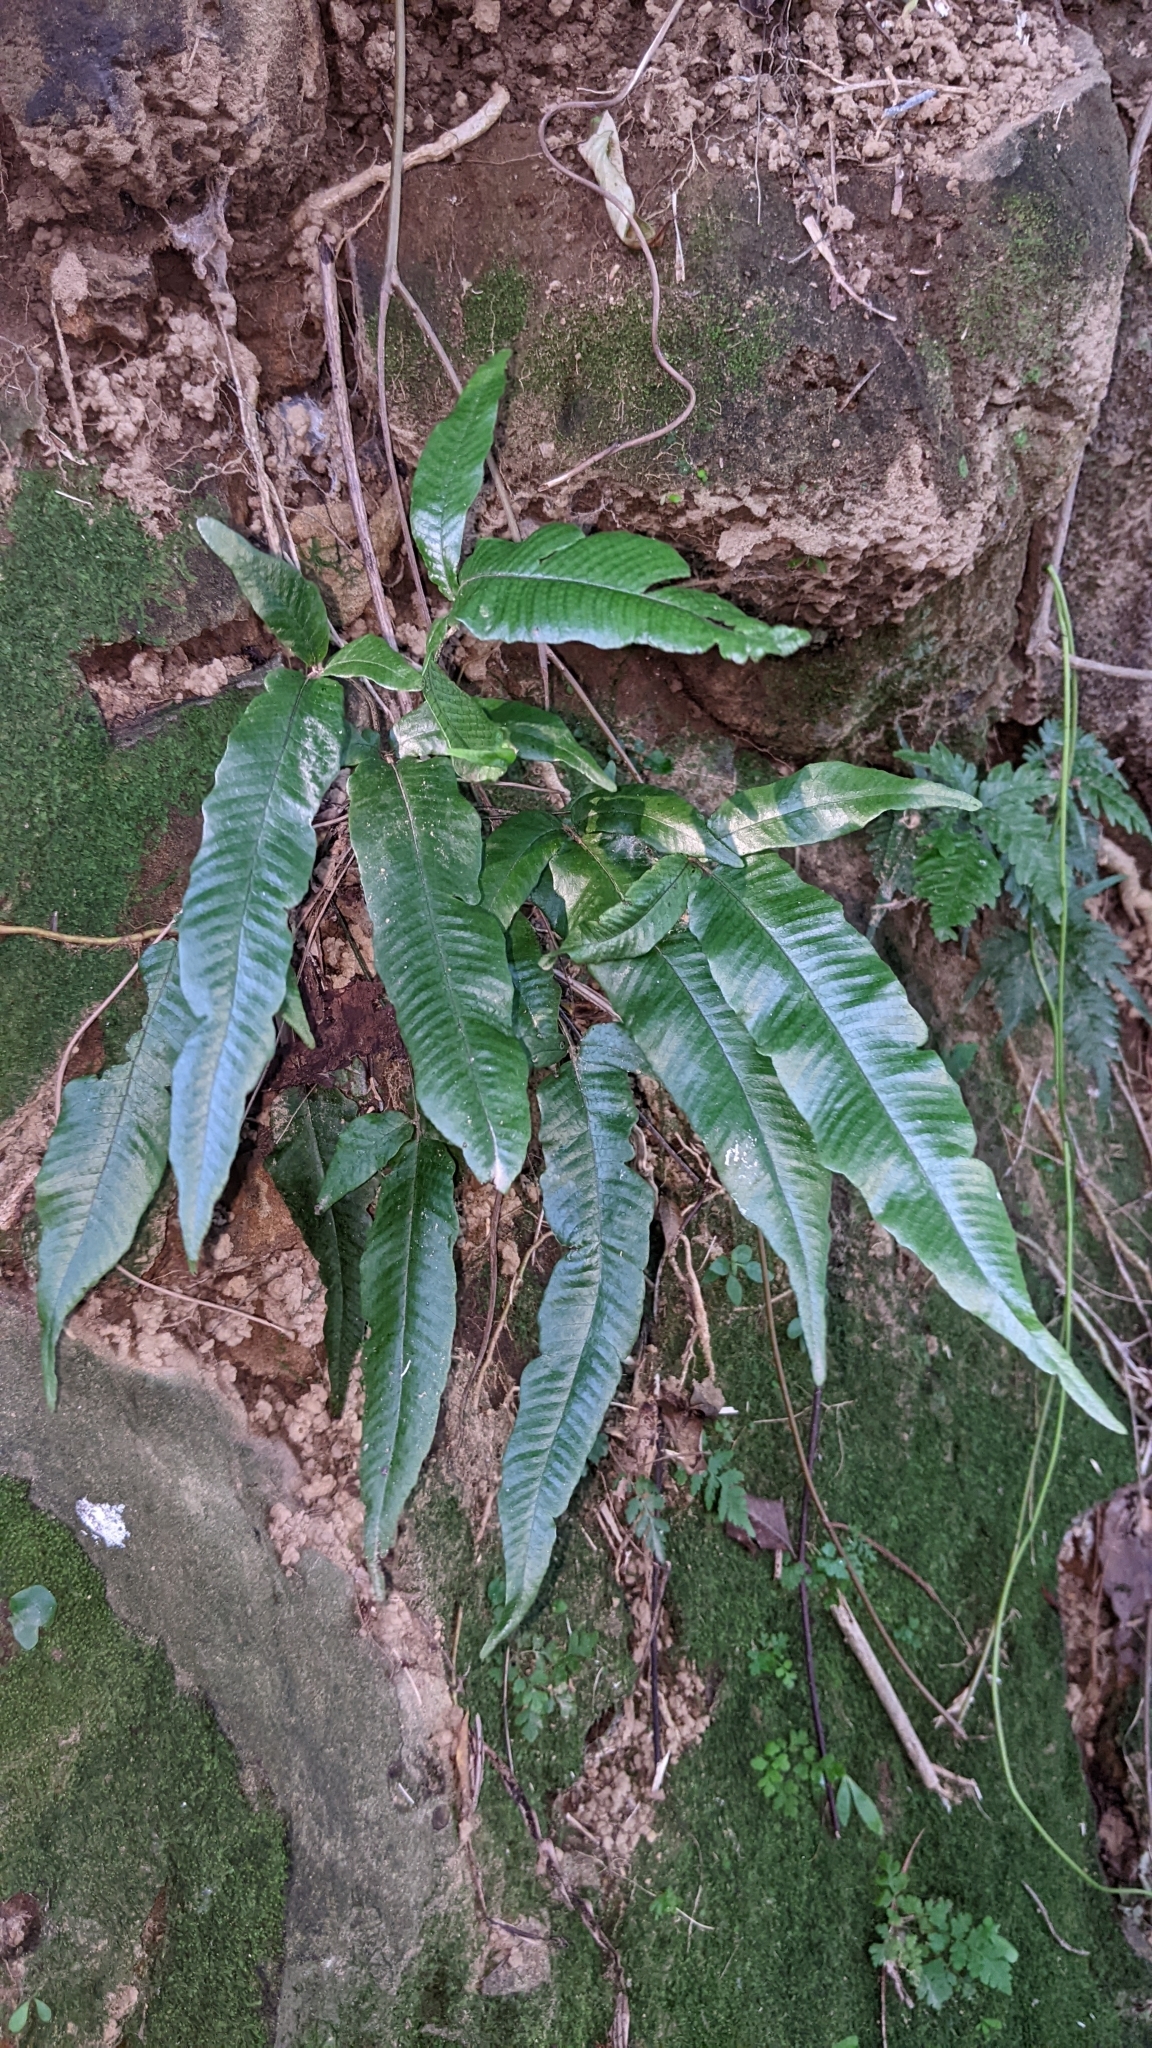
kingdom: Plantae
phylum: Tracheophyta
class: Polypodiopsida
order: Polypodiales
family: Thelypteridaceae
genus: Grypothrix
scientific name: Grypothrix triphylla
